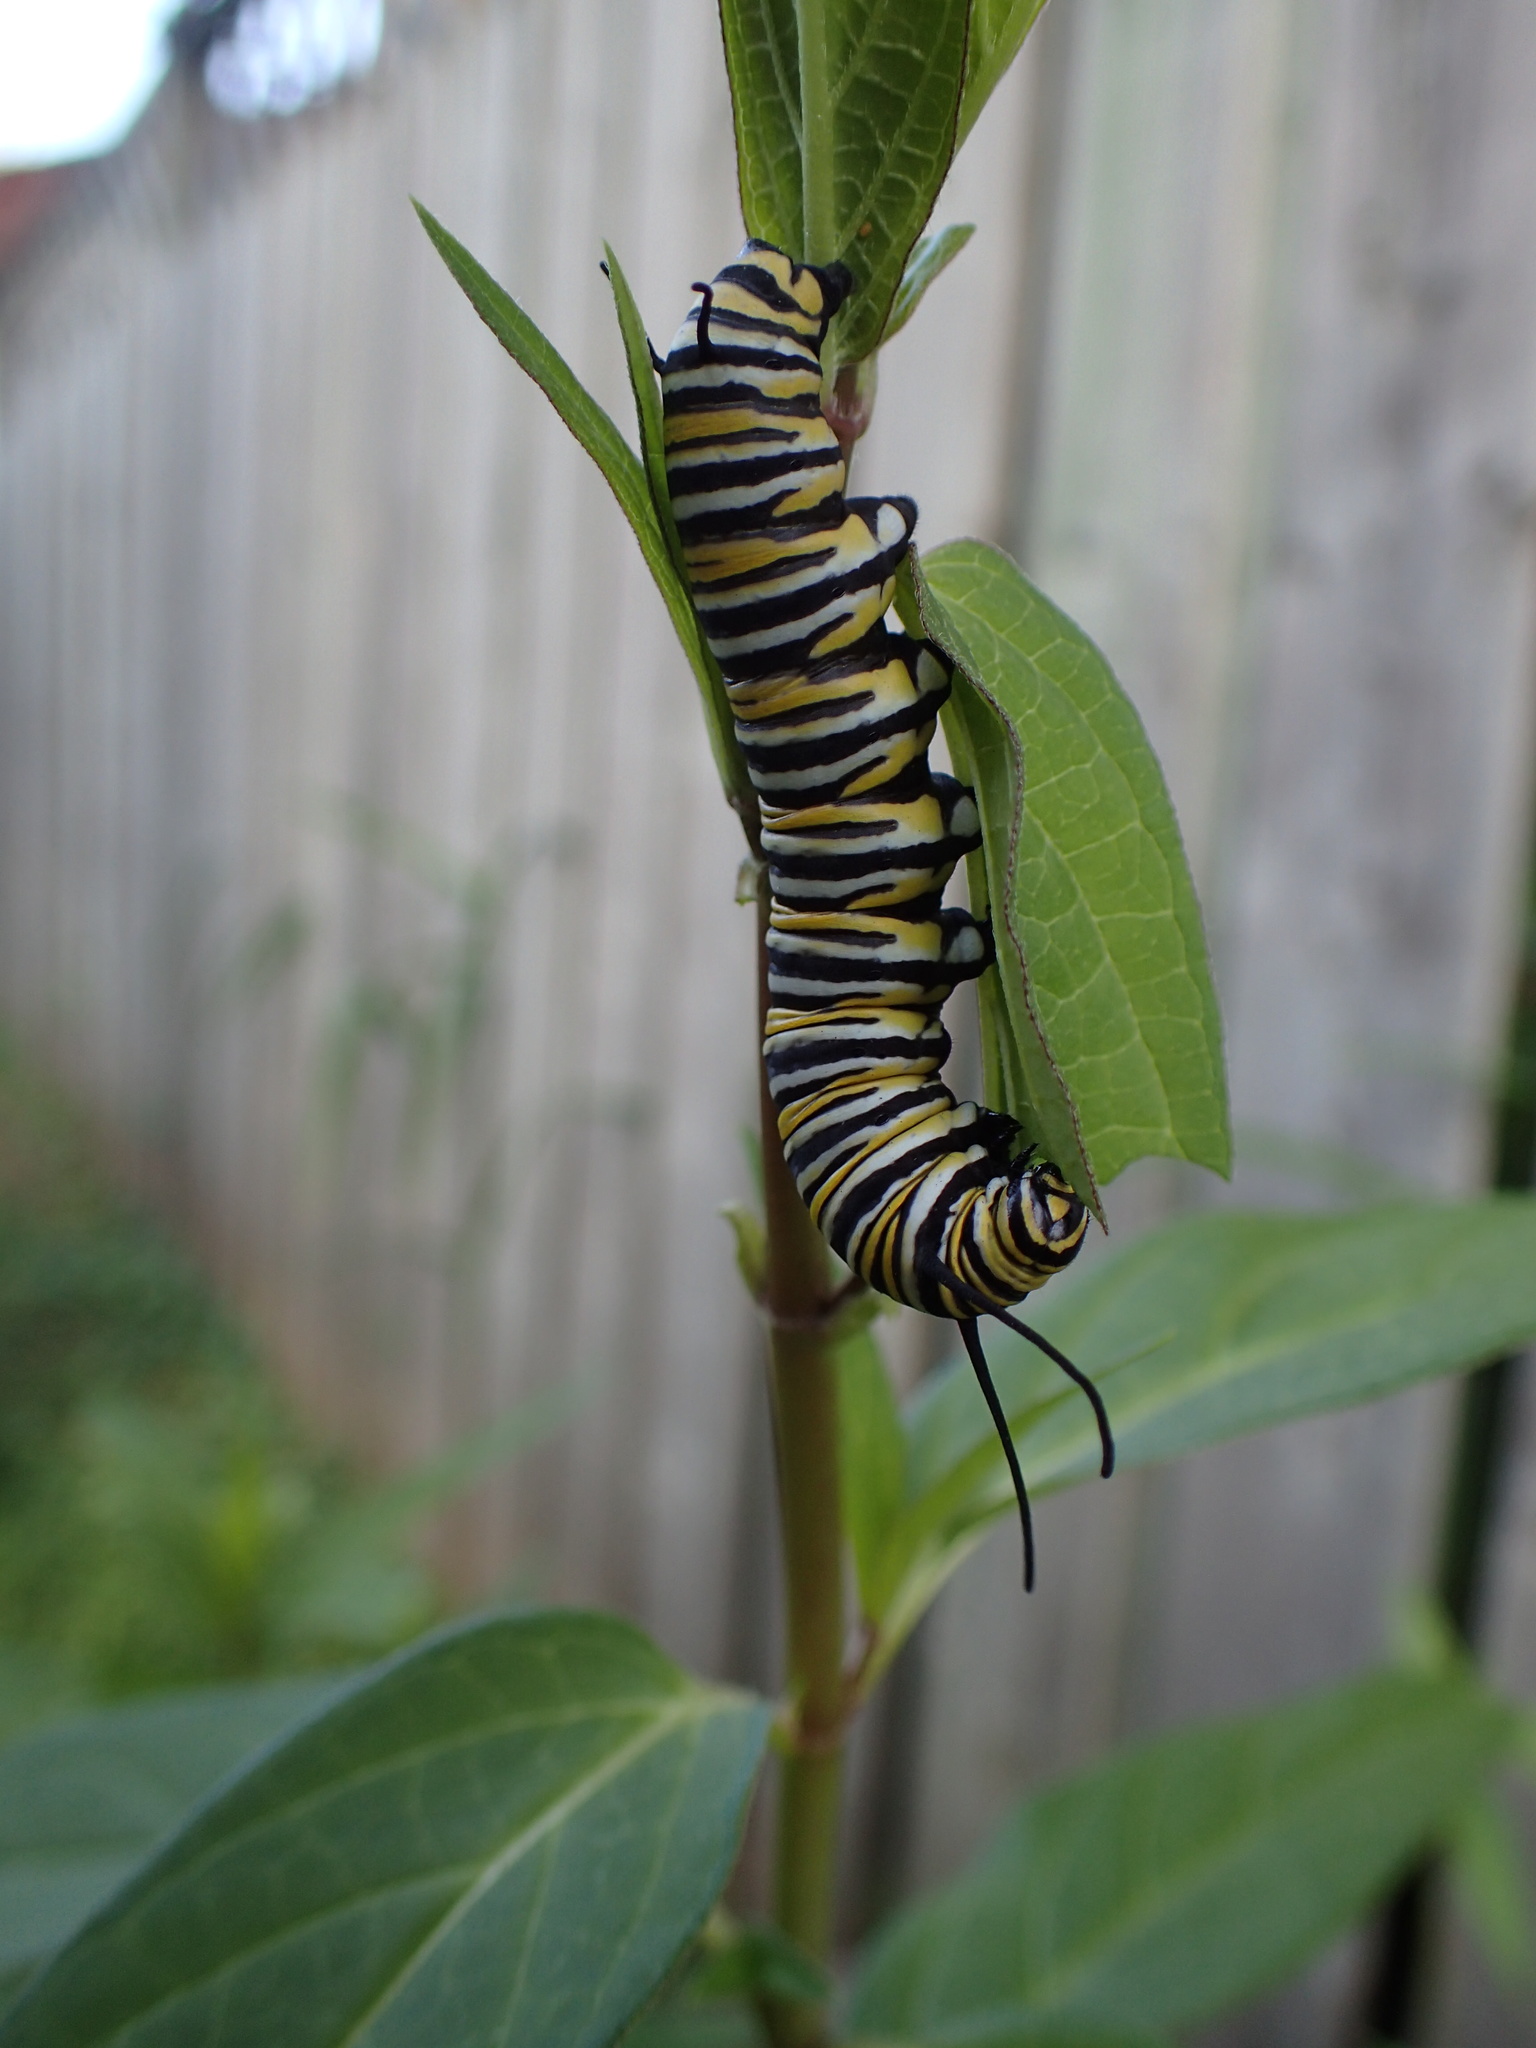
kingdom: Animalia
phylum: Arthropoda
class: Insecta
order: Lepidoptera
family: Nymphalidae
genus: Danaus
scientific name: Danaus plexippus
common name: Monarch
